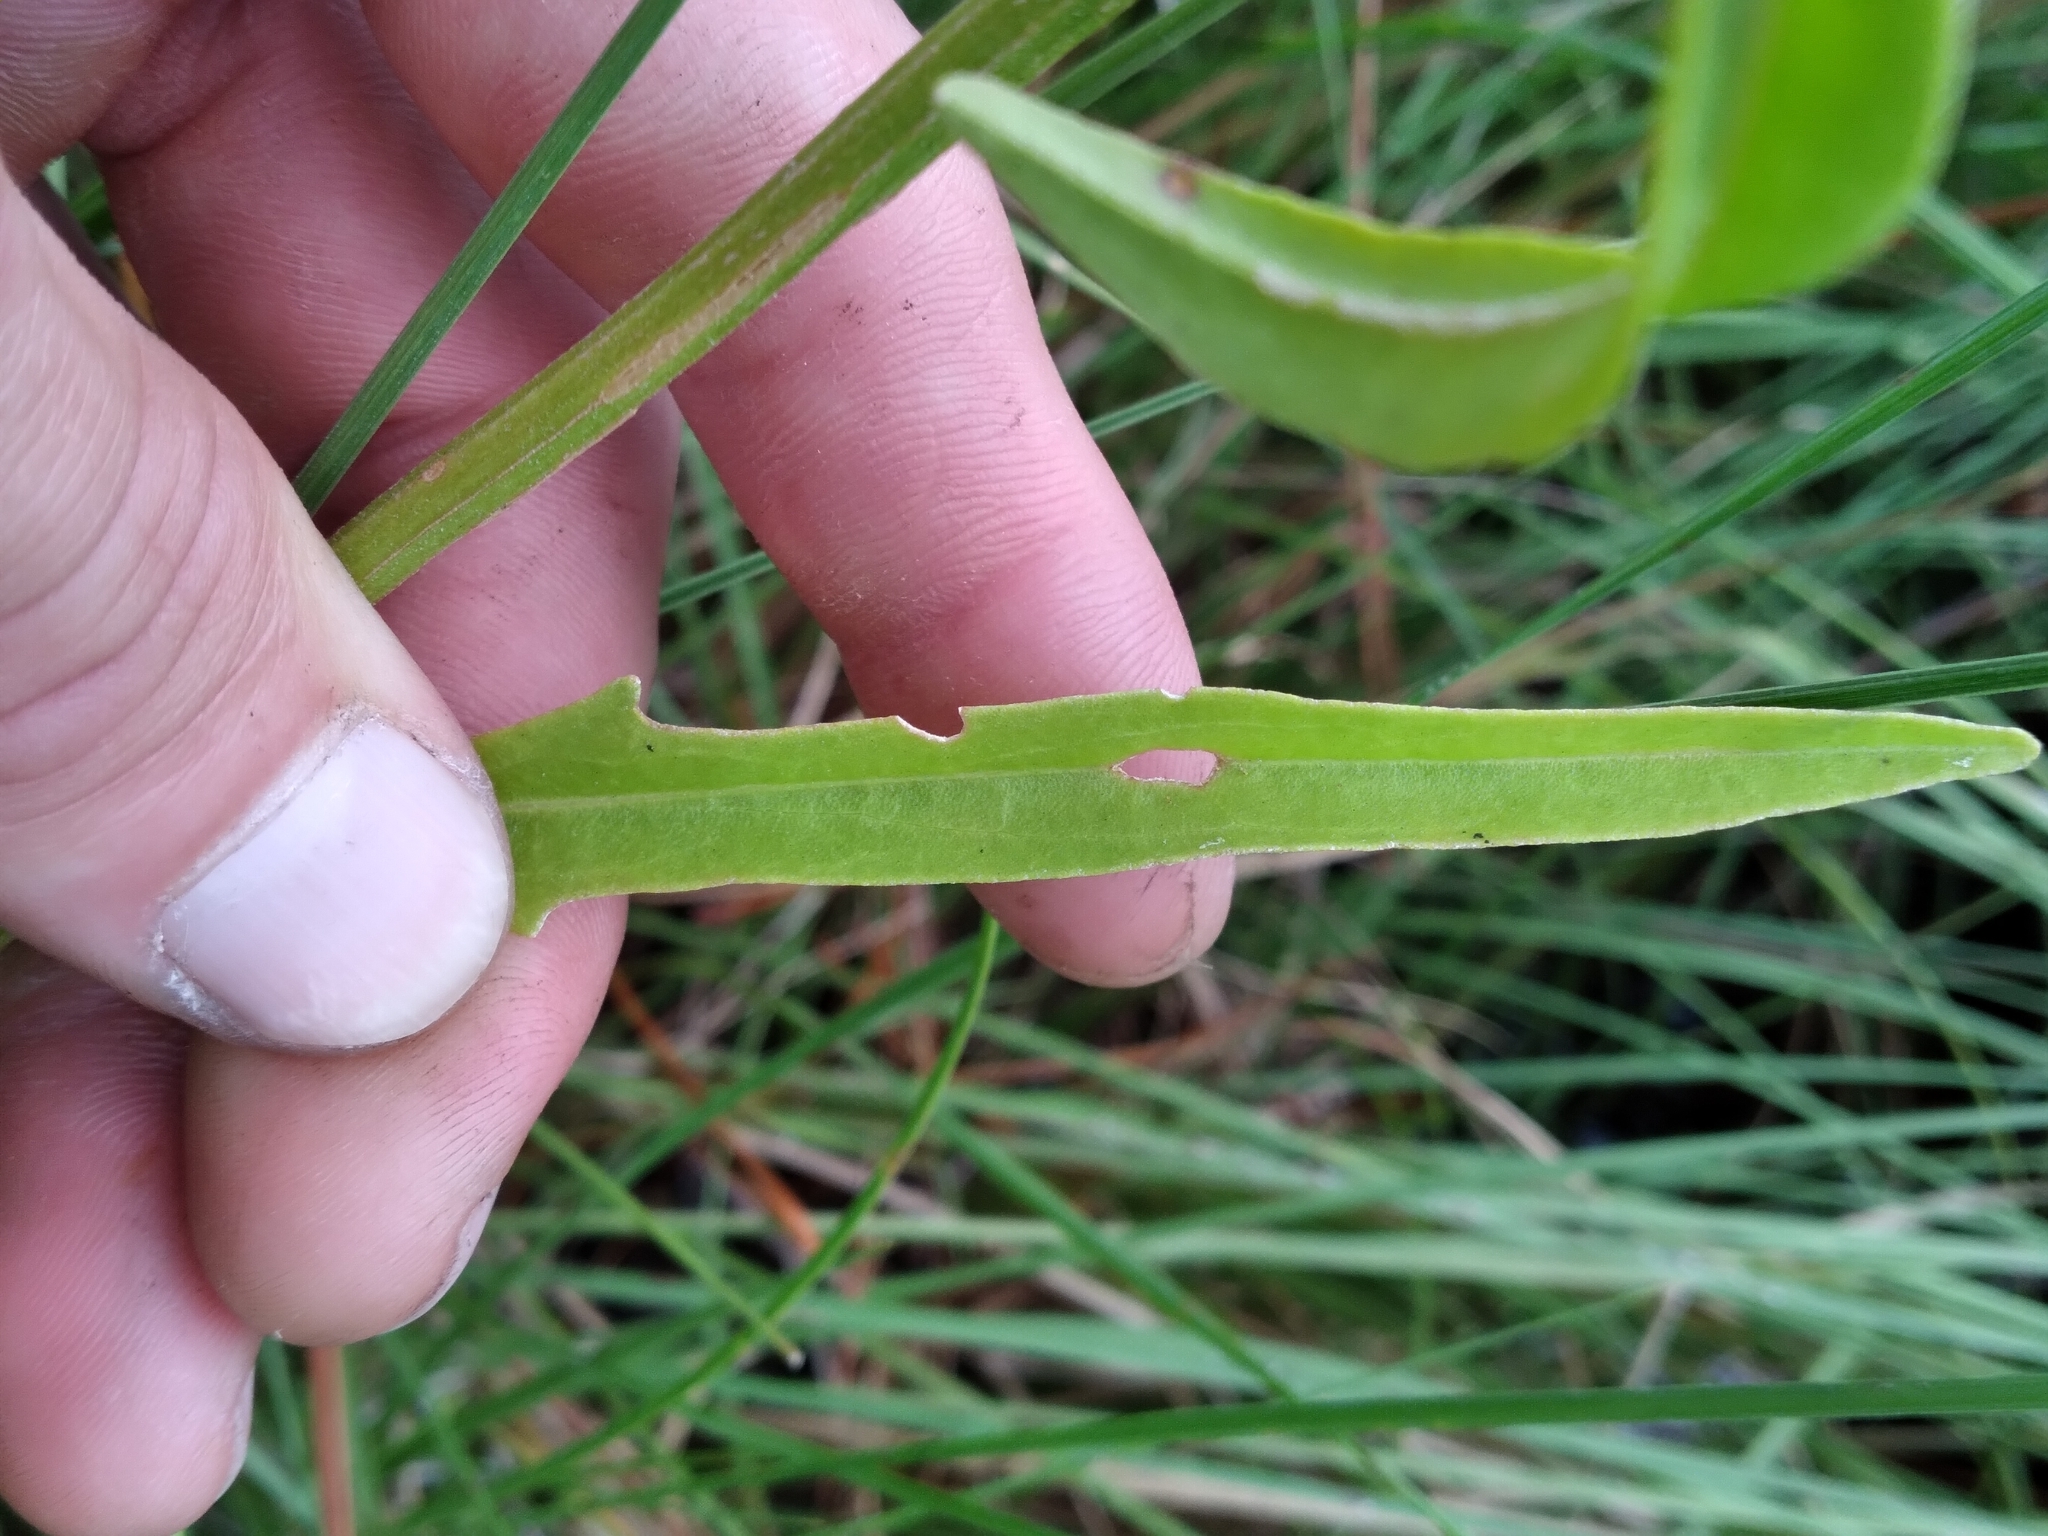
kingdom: Plantae
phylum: Tracheophyta
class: Magnoliopsida
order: Asterales
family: Asteraceae
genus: Hartwrightia
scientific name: Hartwrightia floridana
